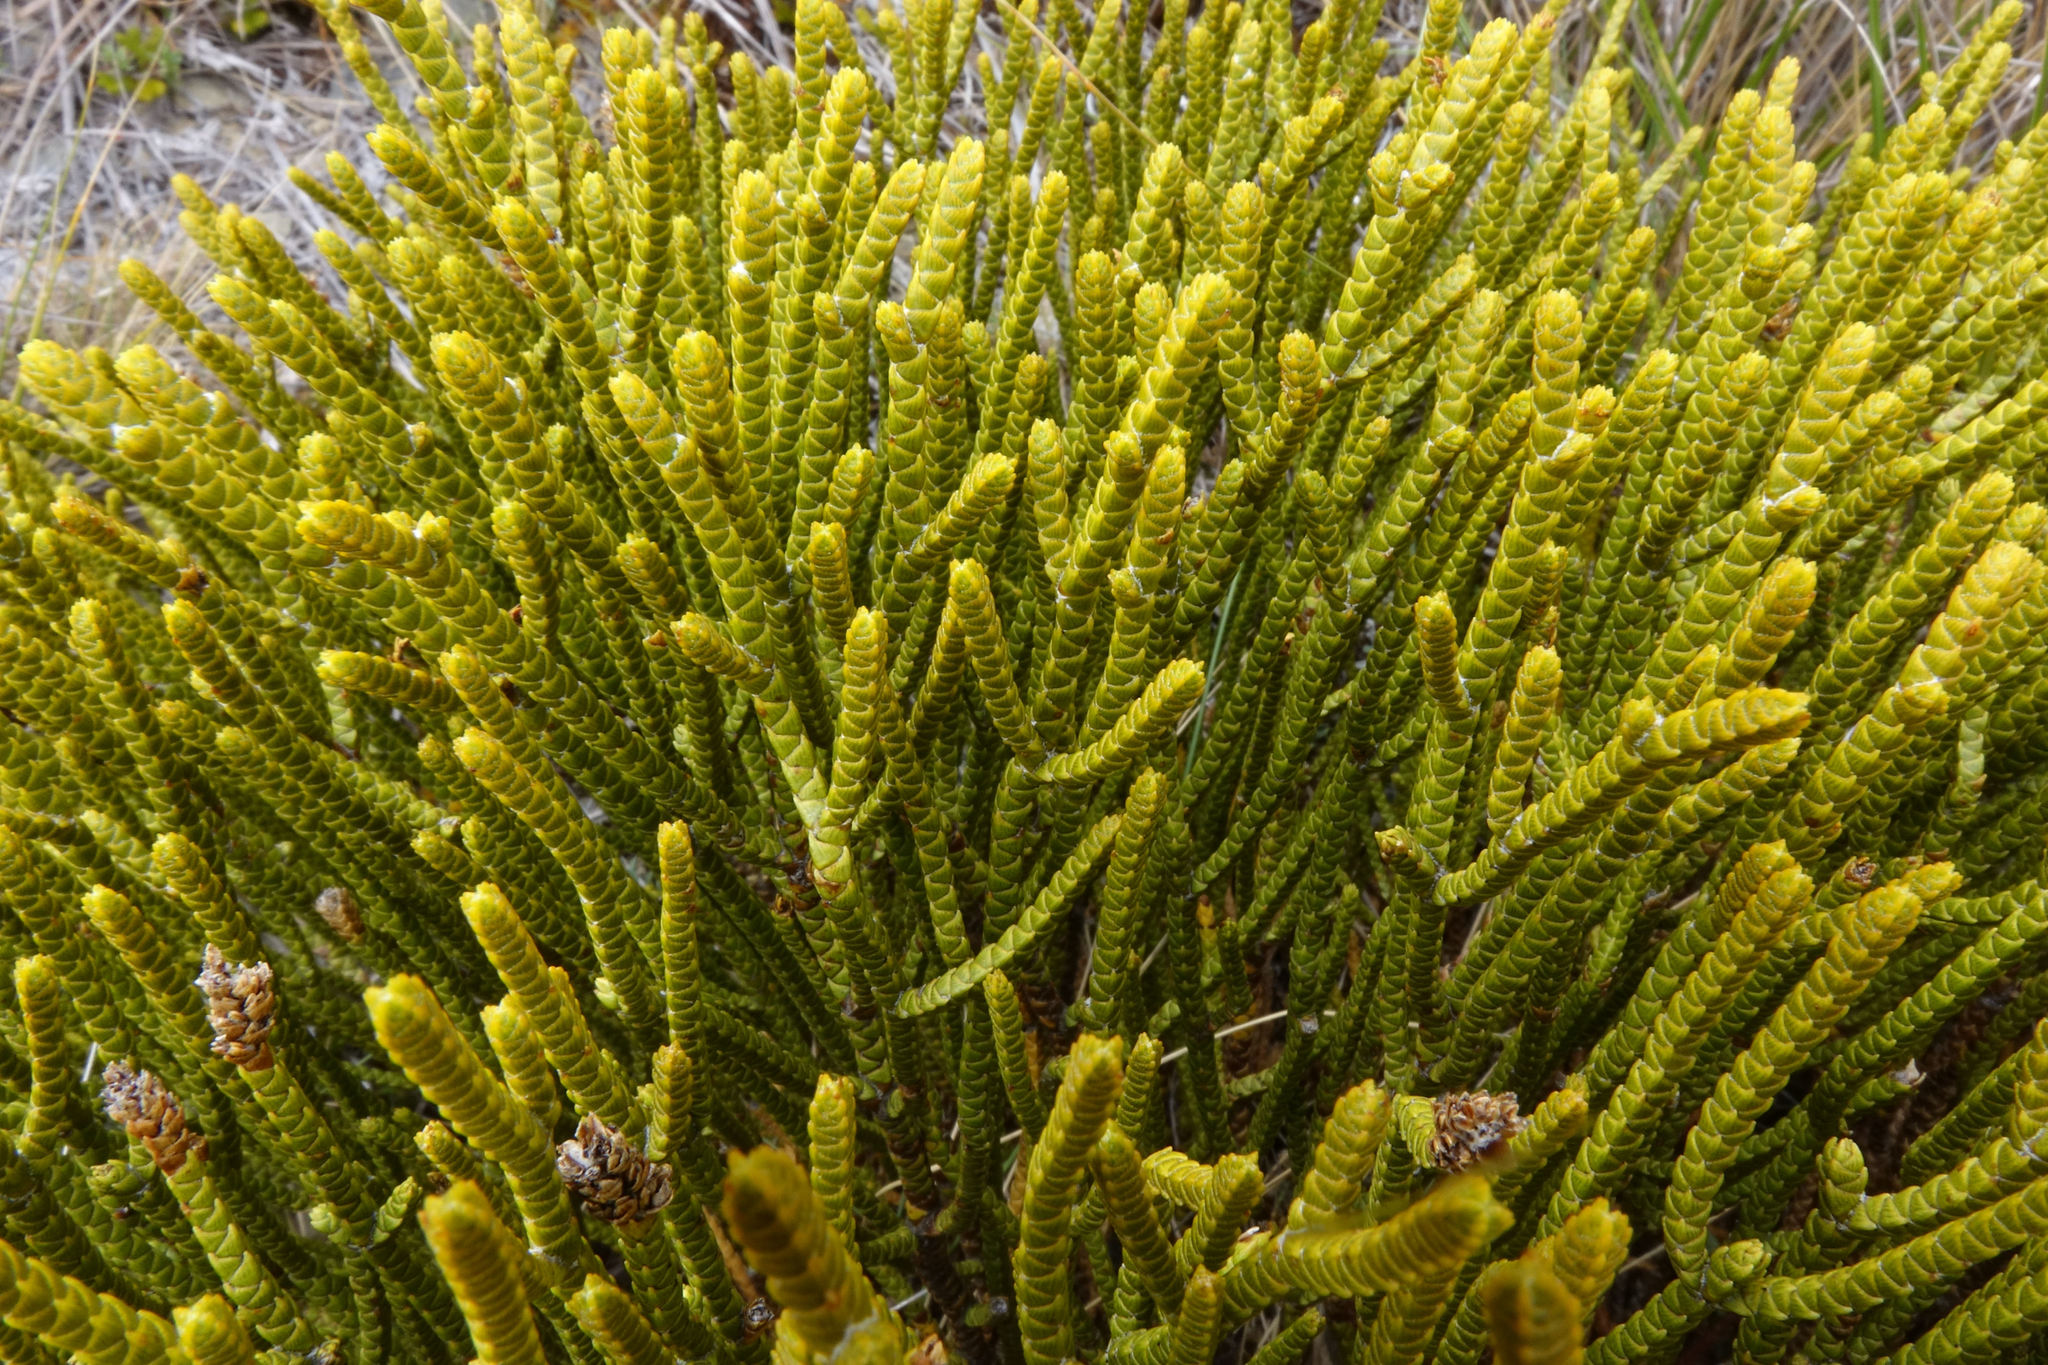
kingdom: Plantae
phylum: Tracheophyta
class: Magnoliopsida
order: Lamiales
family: Plantaginaceae
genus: Veronica
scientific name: Veronica lycopodioides
